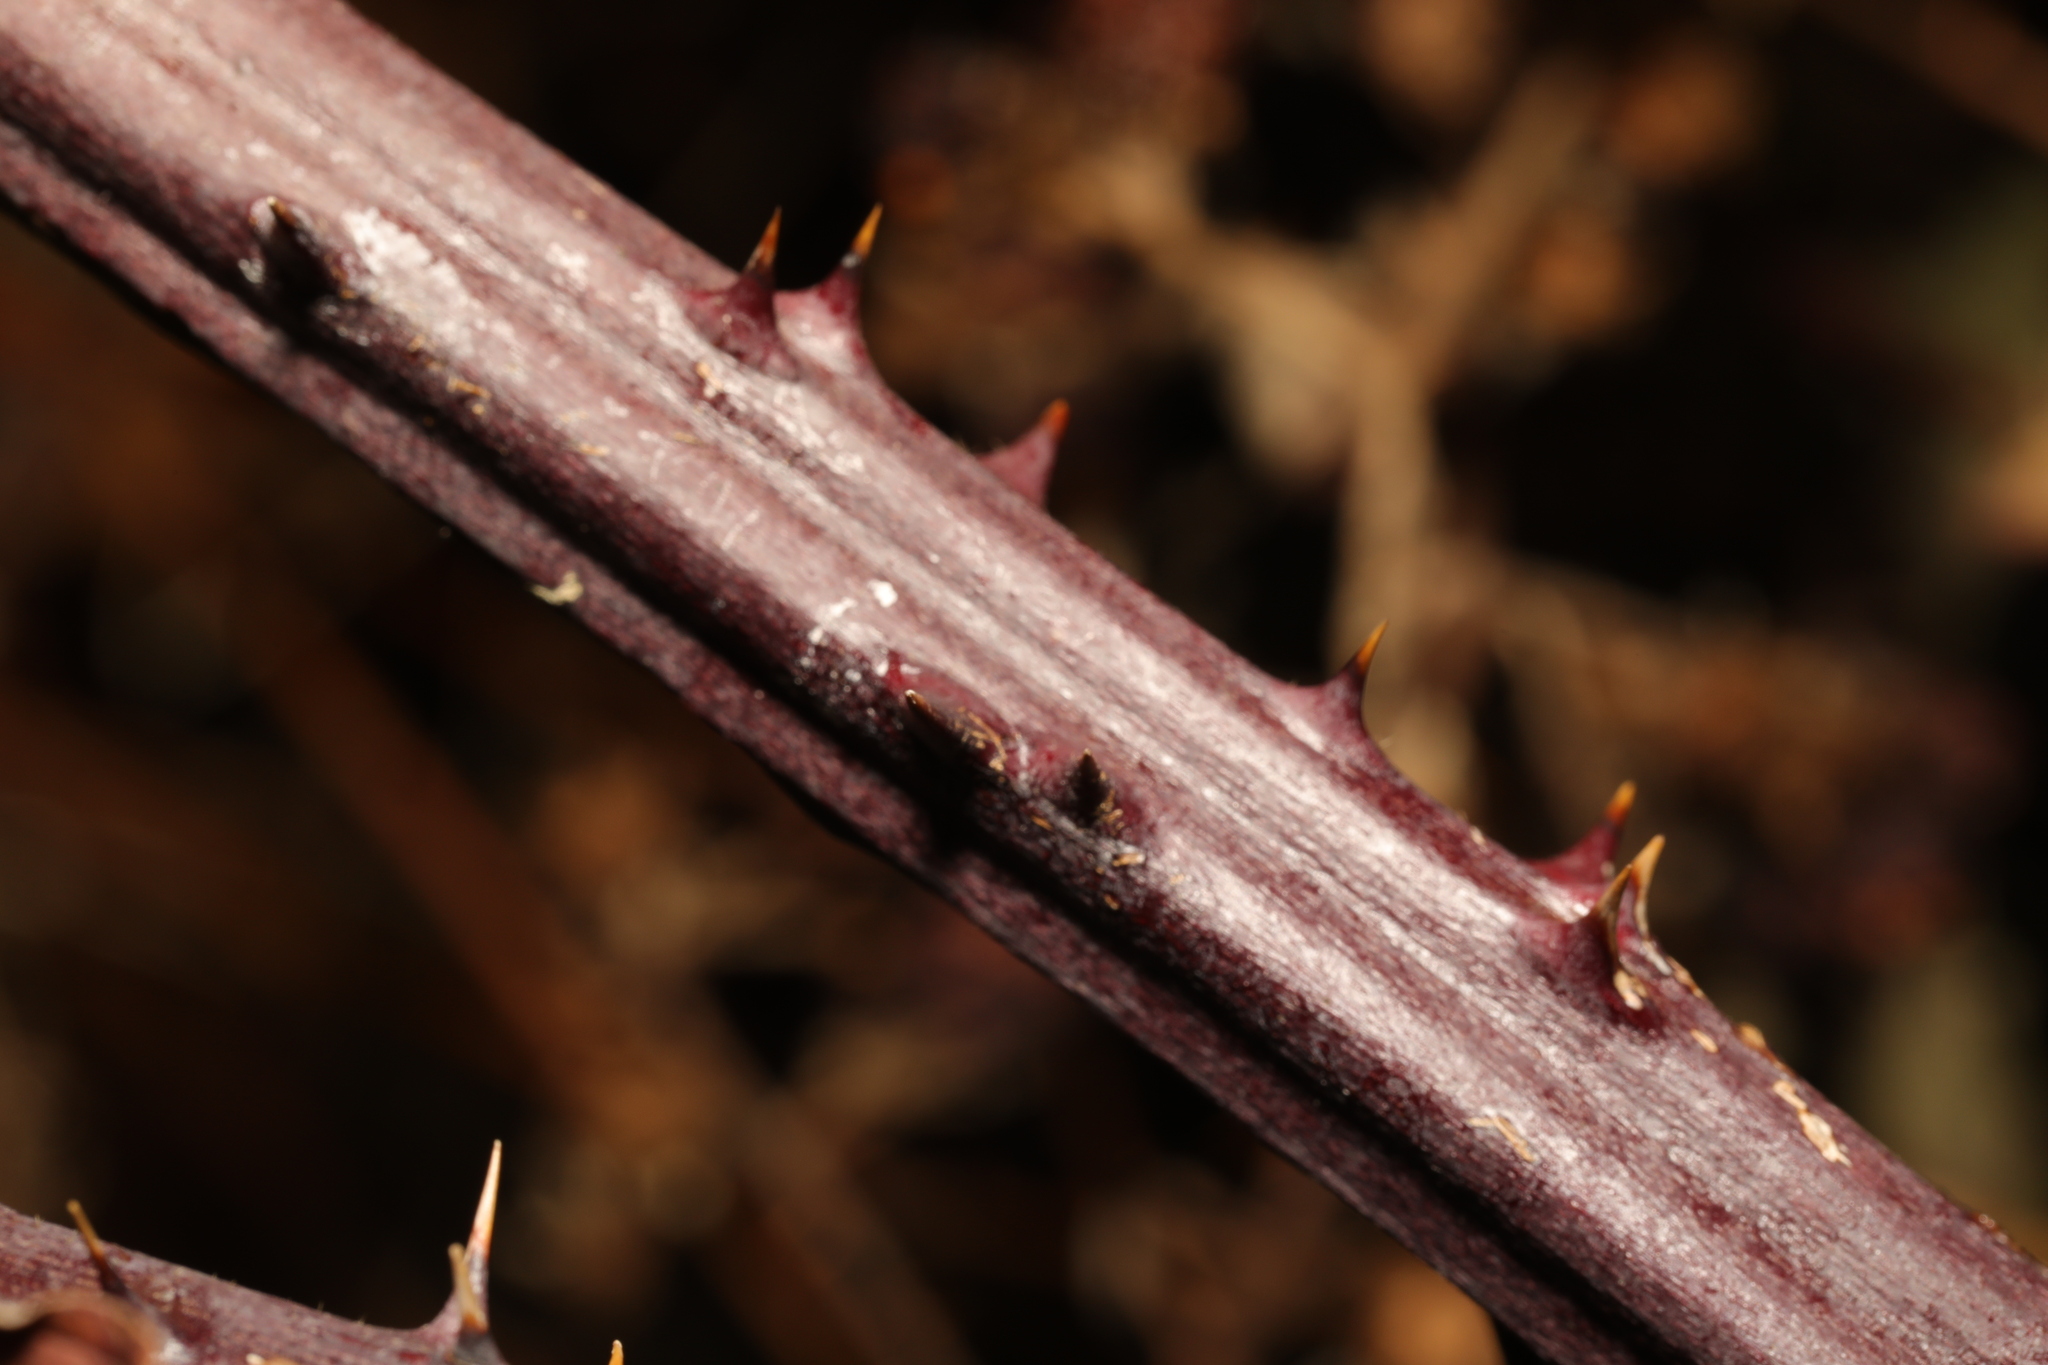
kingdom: Plantae
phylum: Tracheophyta
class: Magnoliopsida
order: Rosales
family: Rosaceae
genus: Rubus
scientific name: Rubus armeniacus
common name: Himalayan blackberry
